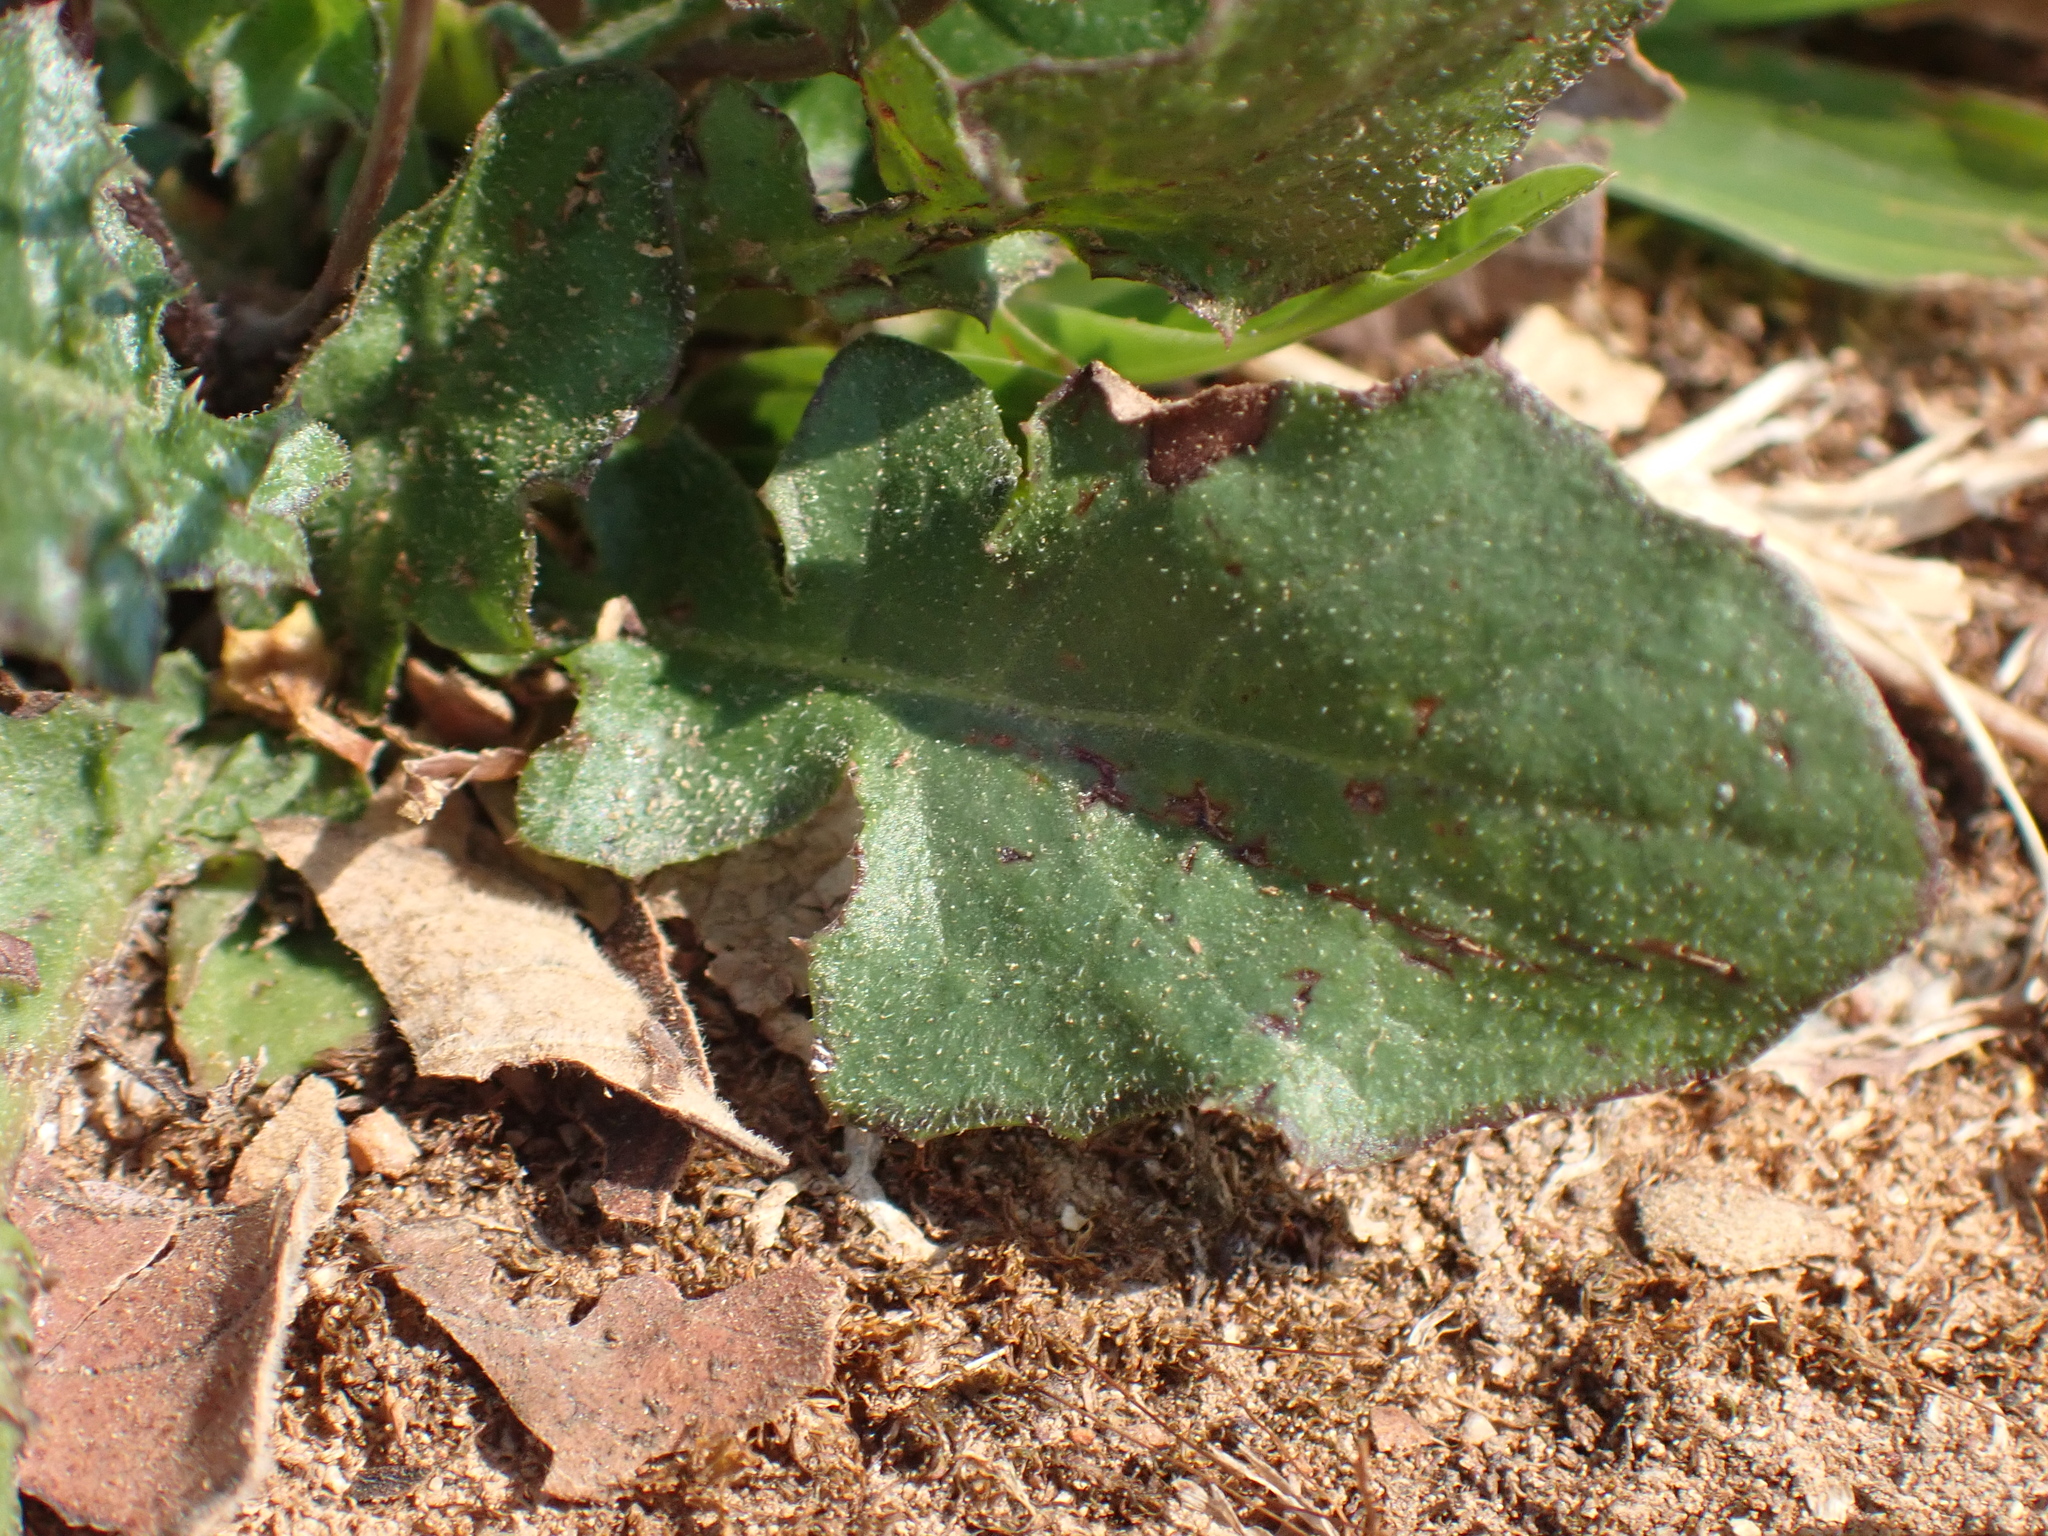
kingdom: Plantae
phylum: Tracheophyta
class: Magnoliopsida
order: Asterales
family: Asteraceae
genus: Youngia
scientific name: Youngia japonica
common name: Oriental false hawksbeard
